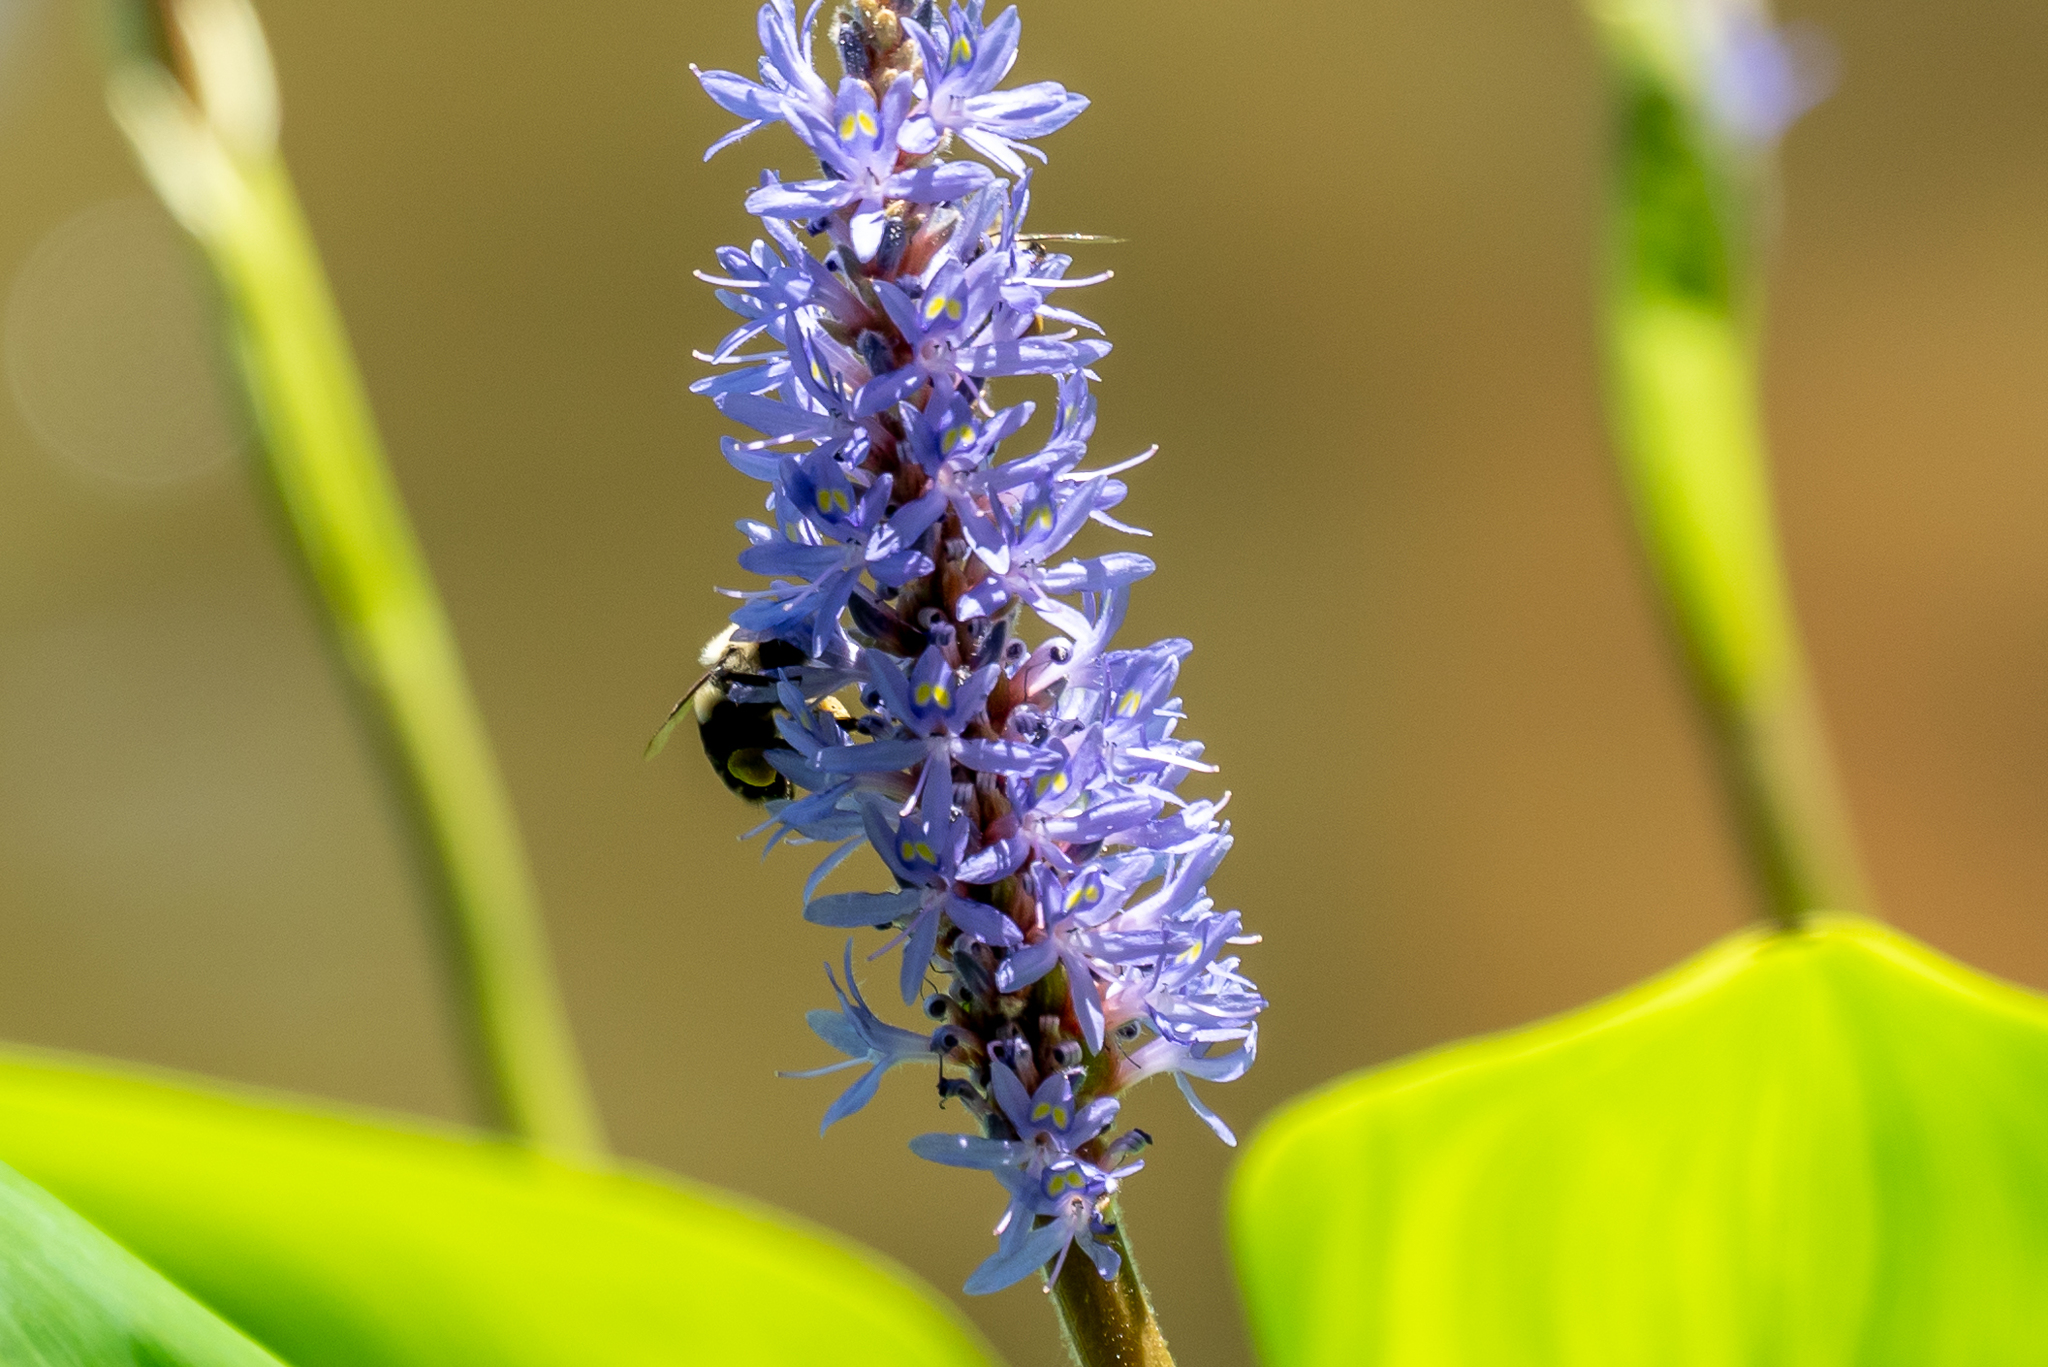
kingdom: Plantae
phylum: Tracheophyta
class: Liliopsida
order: Commelinales
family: Pontederiaceae
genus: Pontederia
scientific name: Pontederia cordata
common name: Pickerelweed
